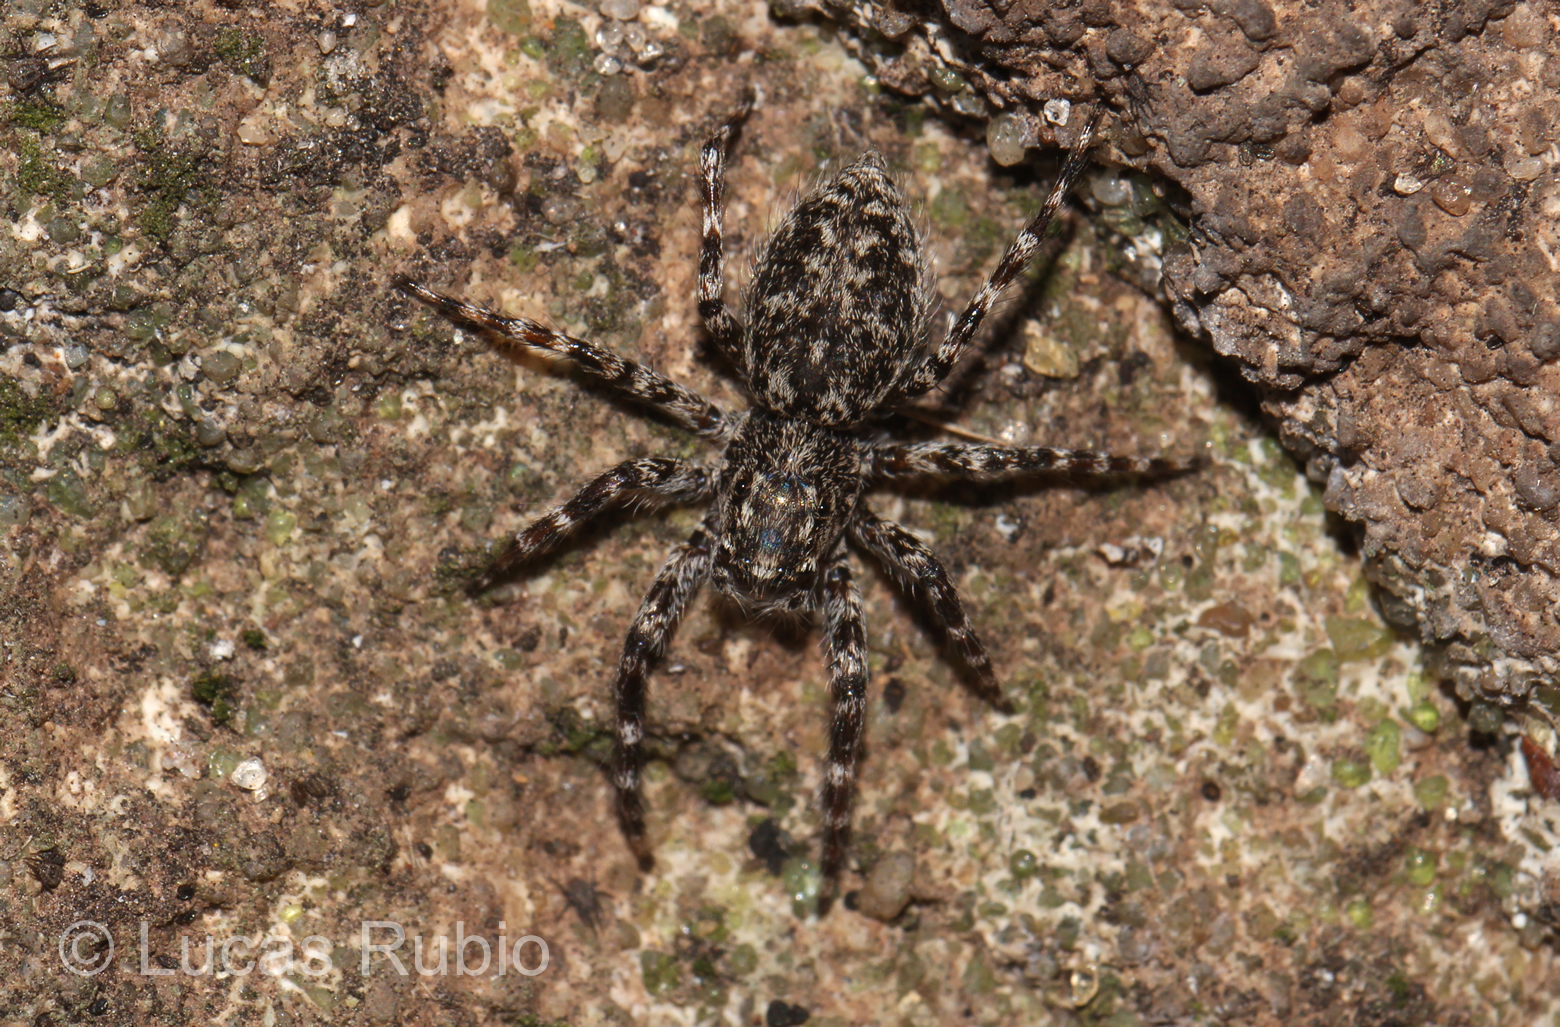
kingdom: Animalia
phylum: Arthropoda
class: Arachnida
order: Araneae
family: Salticidae
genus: Titanattus
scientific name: Titanattus andinus
